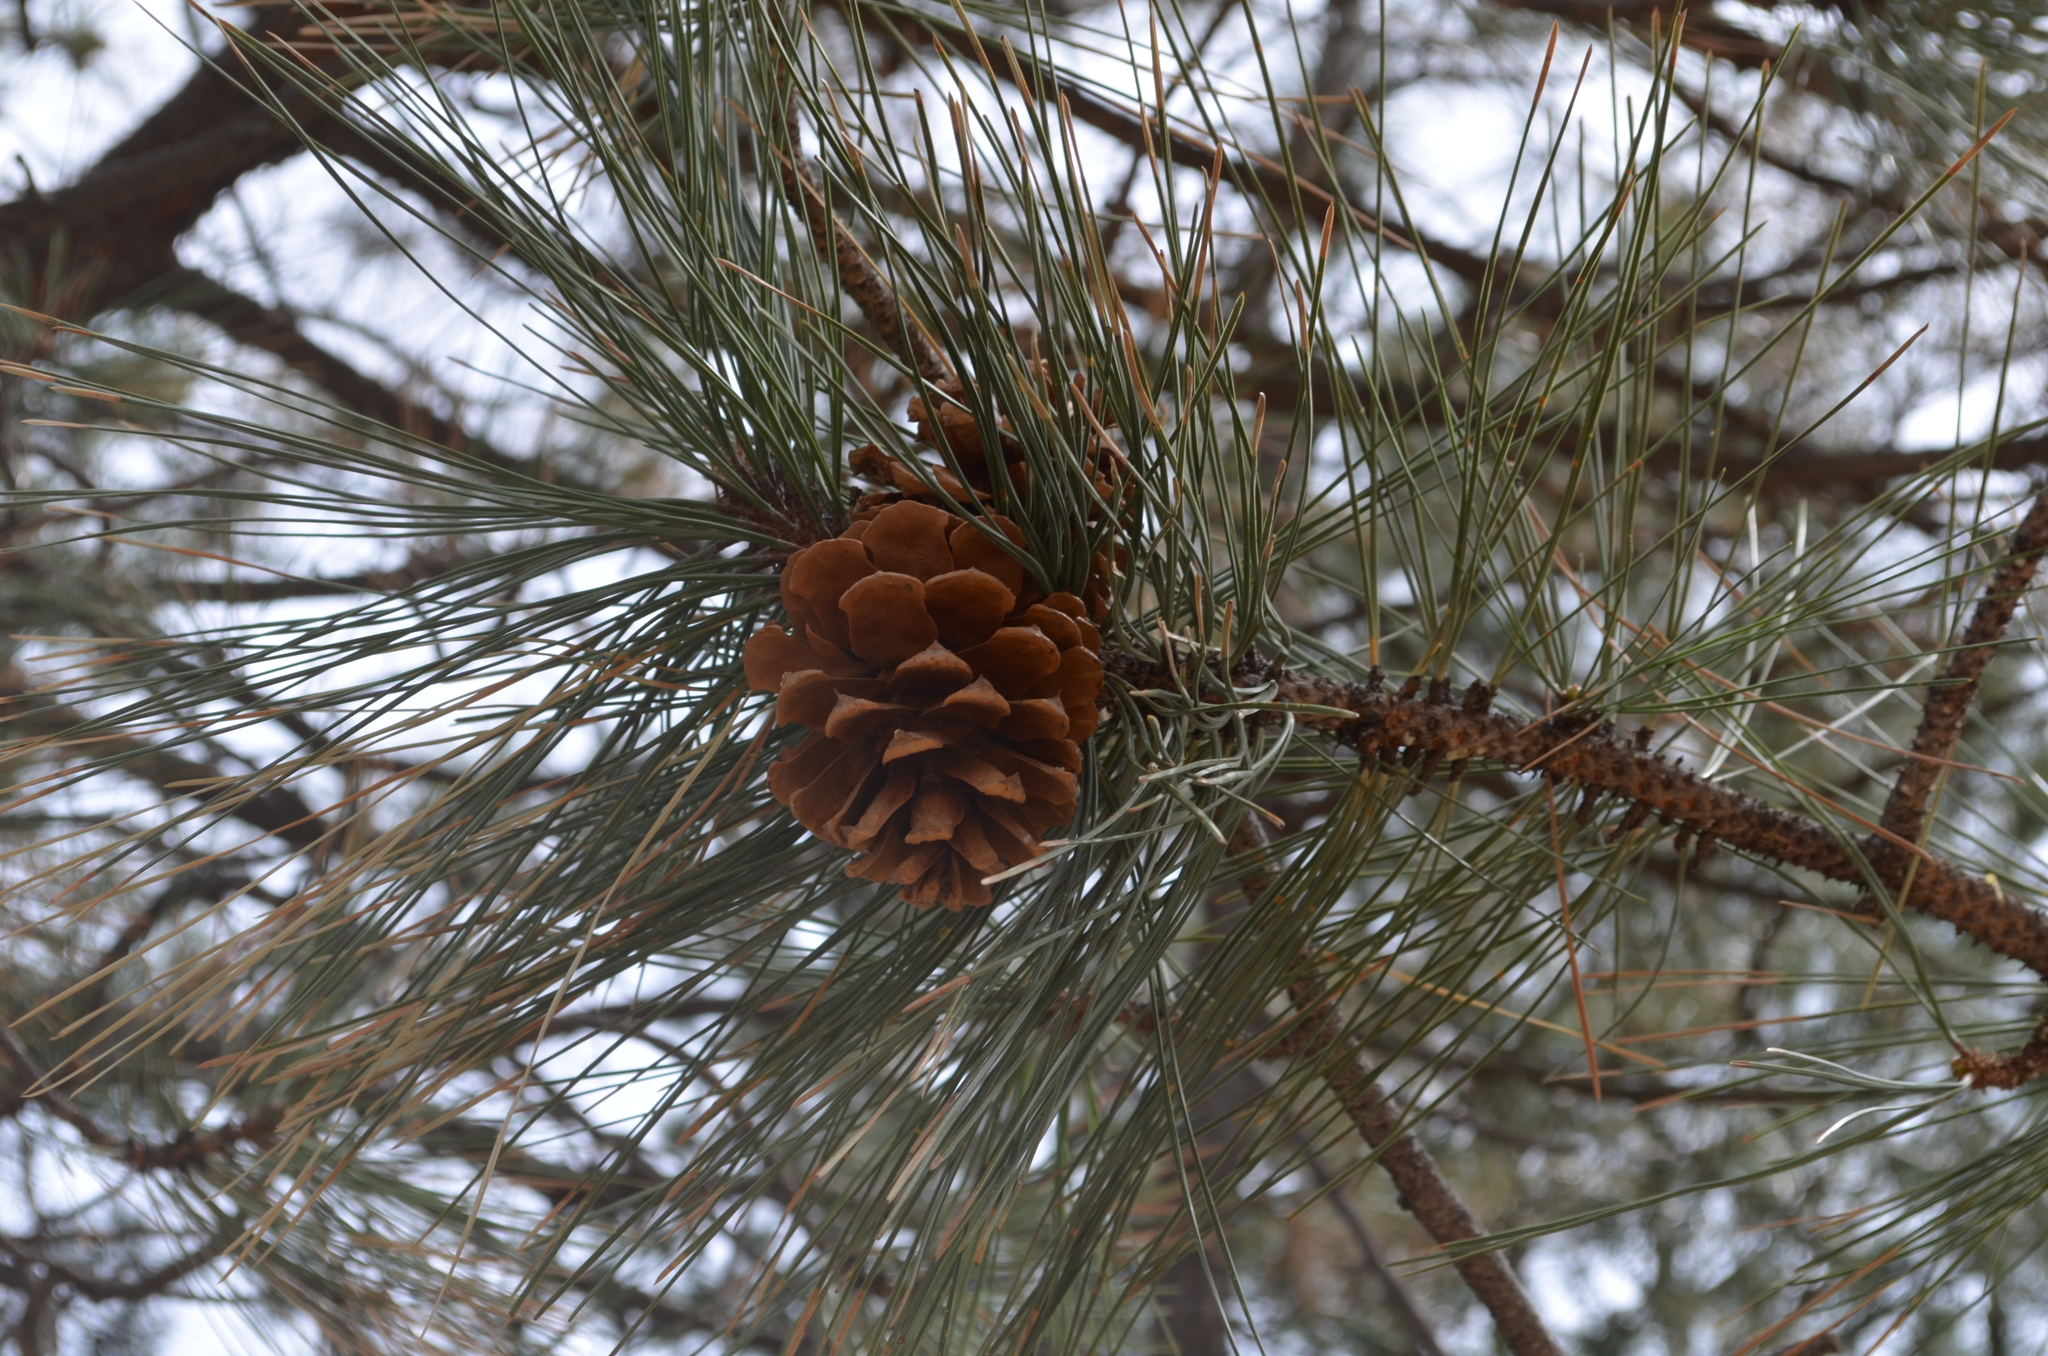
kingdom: Plantae
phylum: Tracheophyta
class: Pinopsida
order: Pinales
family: Pinaceae
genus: Pinus
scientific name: Pinus ponderosa
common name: Western yellow-pine
